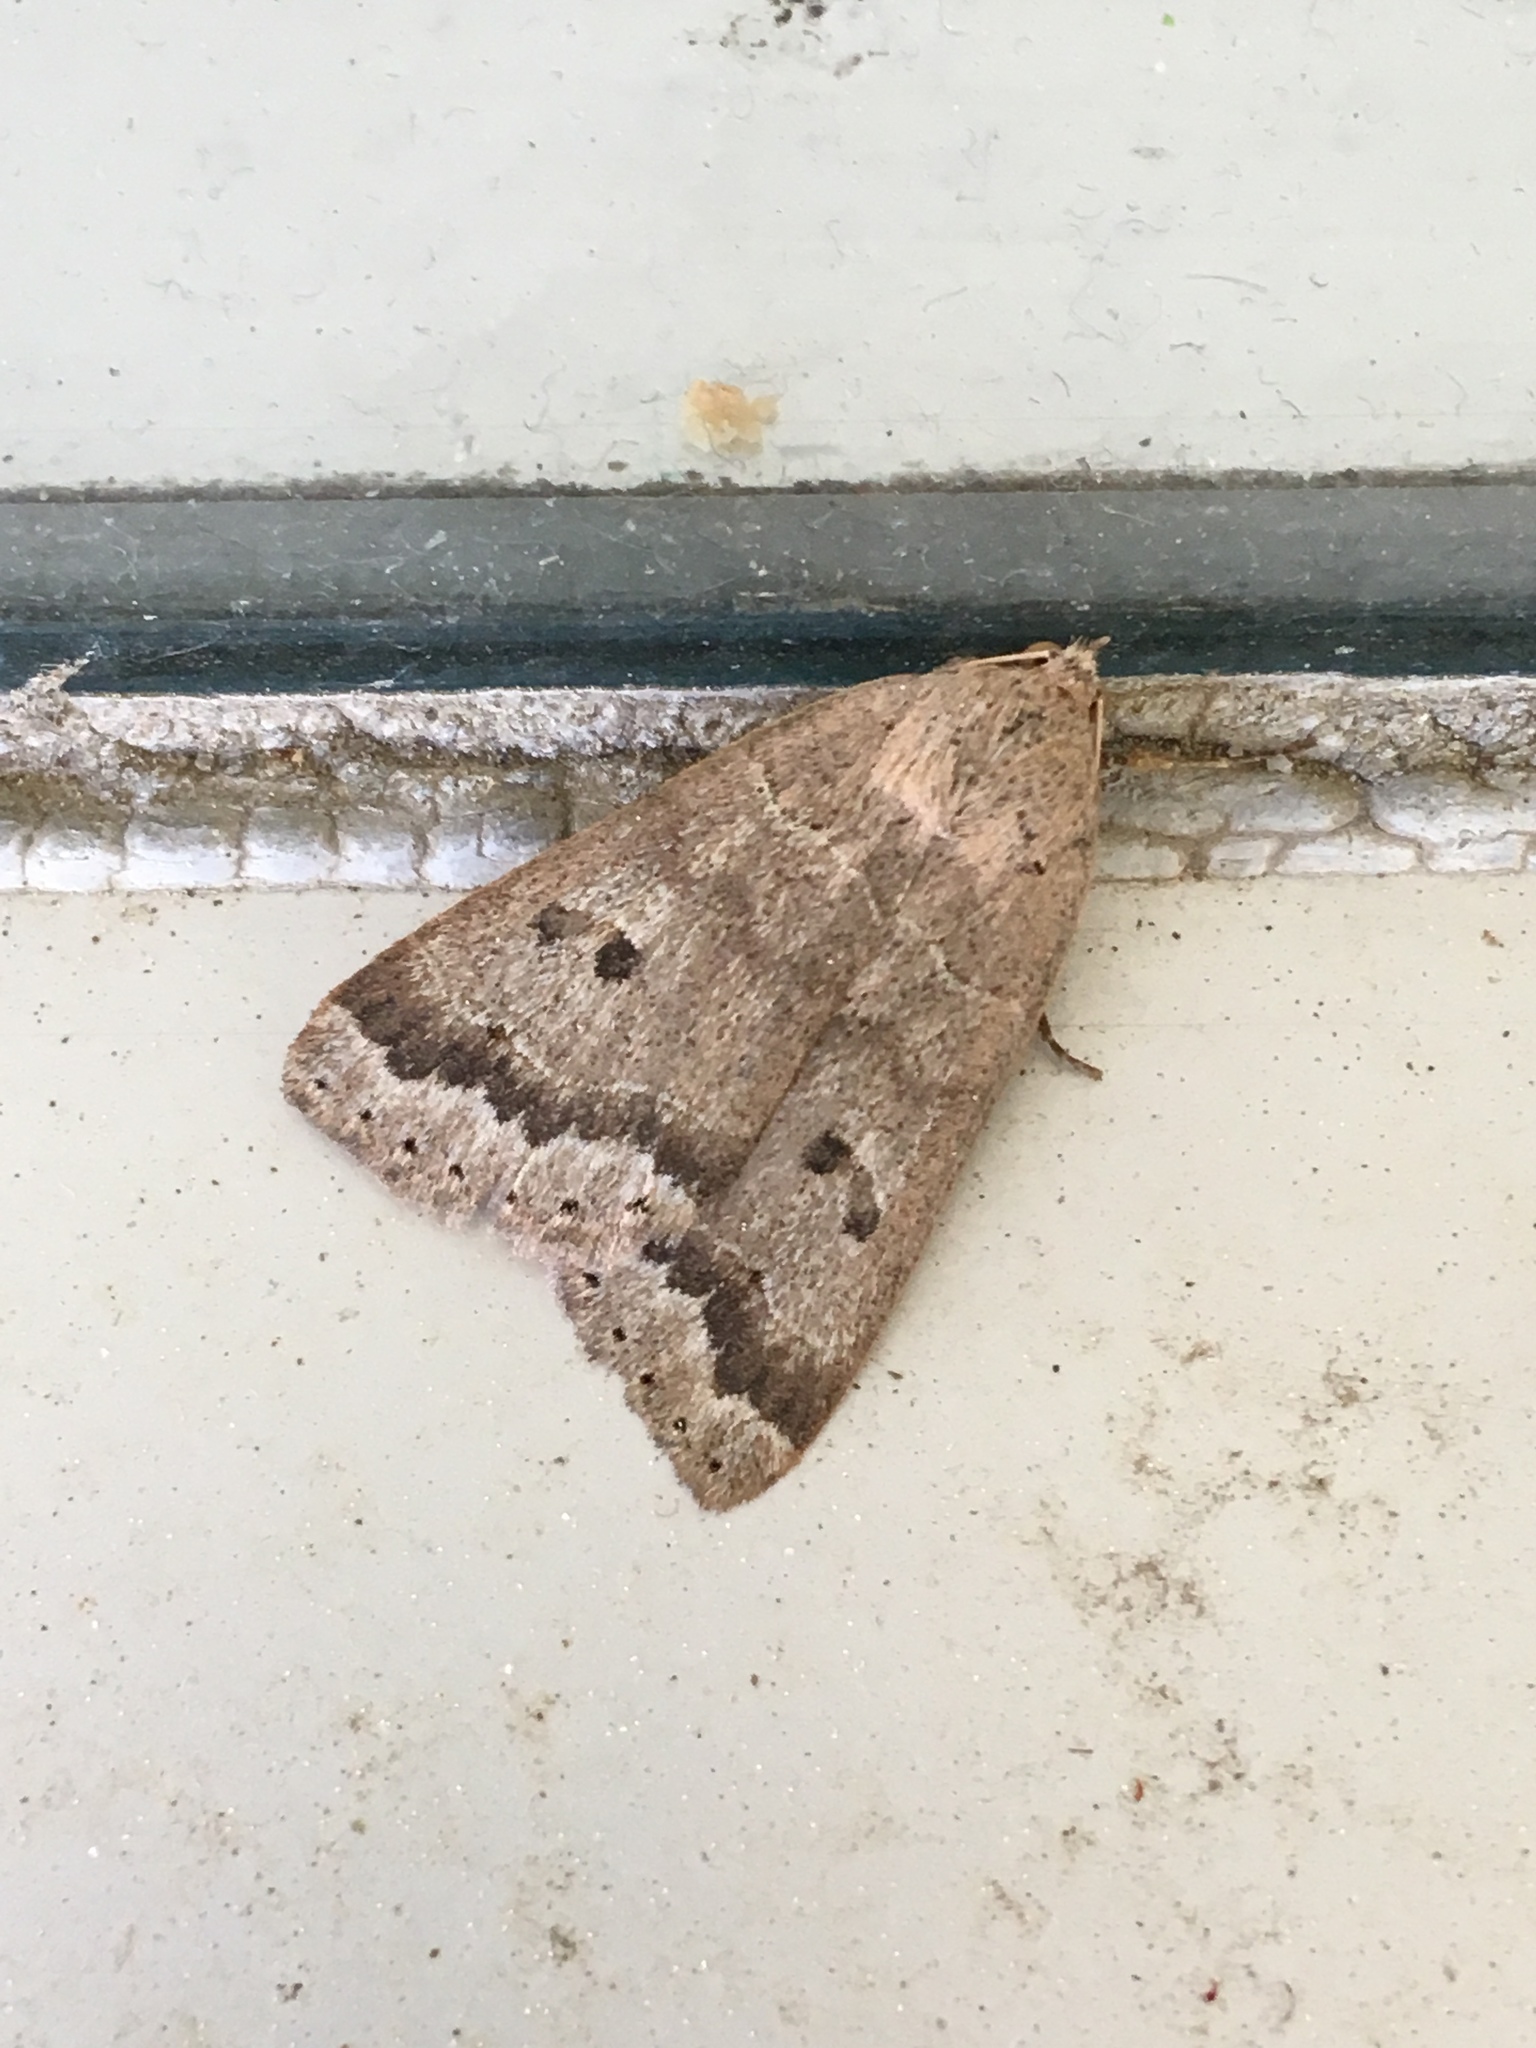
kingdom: Animalia
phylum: Arthropoda
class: Insecta
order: Lepidoptera
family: Erebidae
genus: Phoberia
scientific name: Phoberia atomaris
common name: Common oak moth
